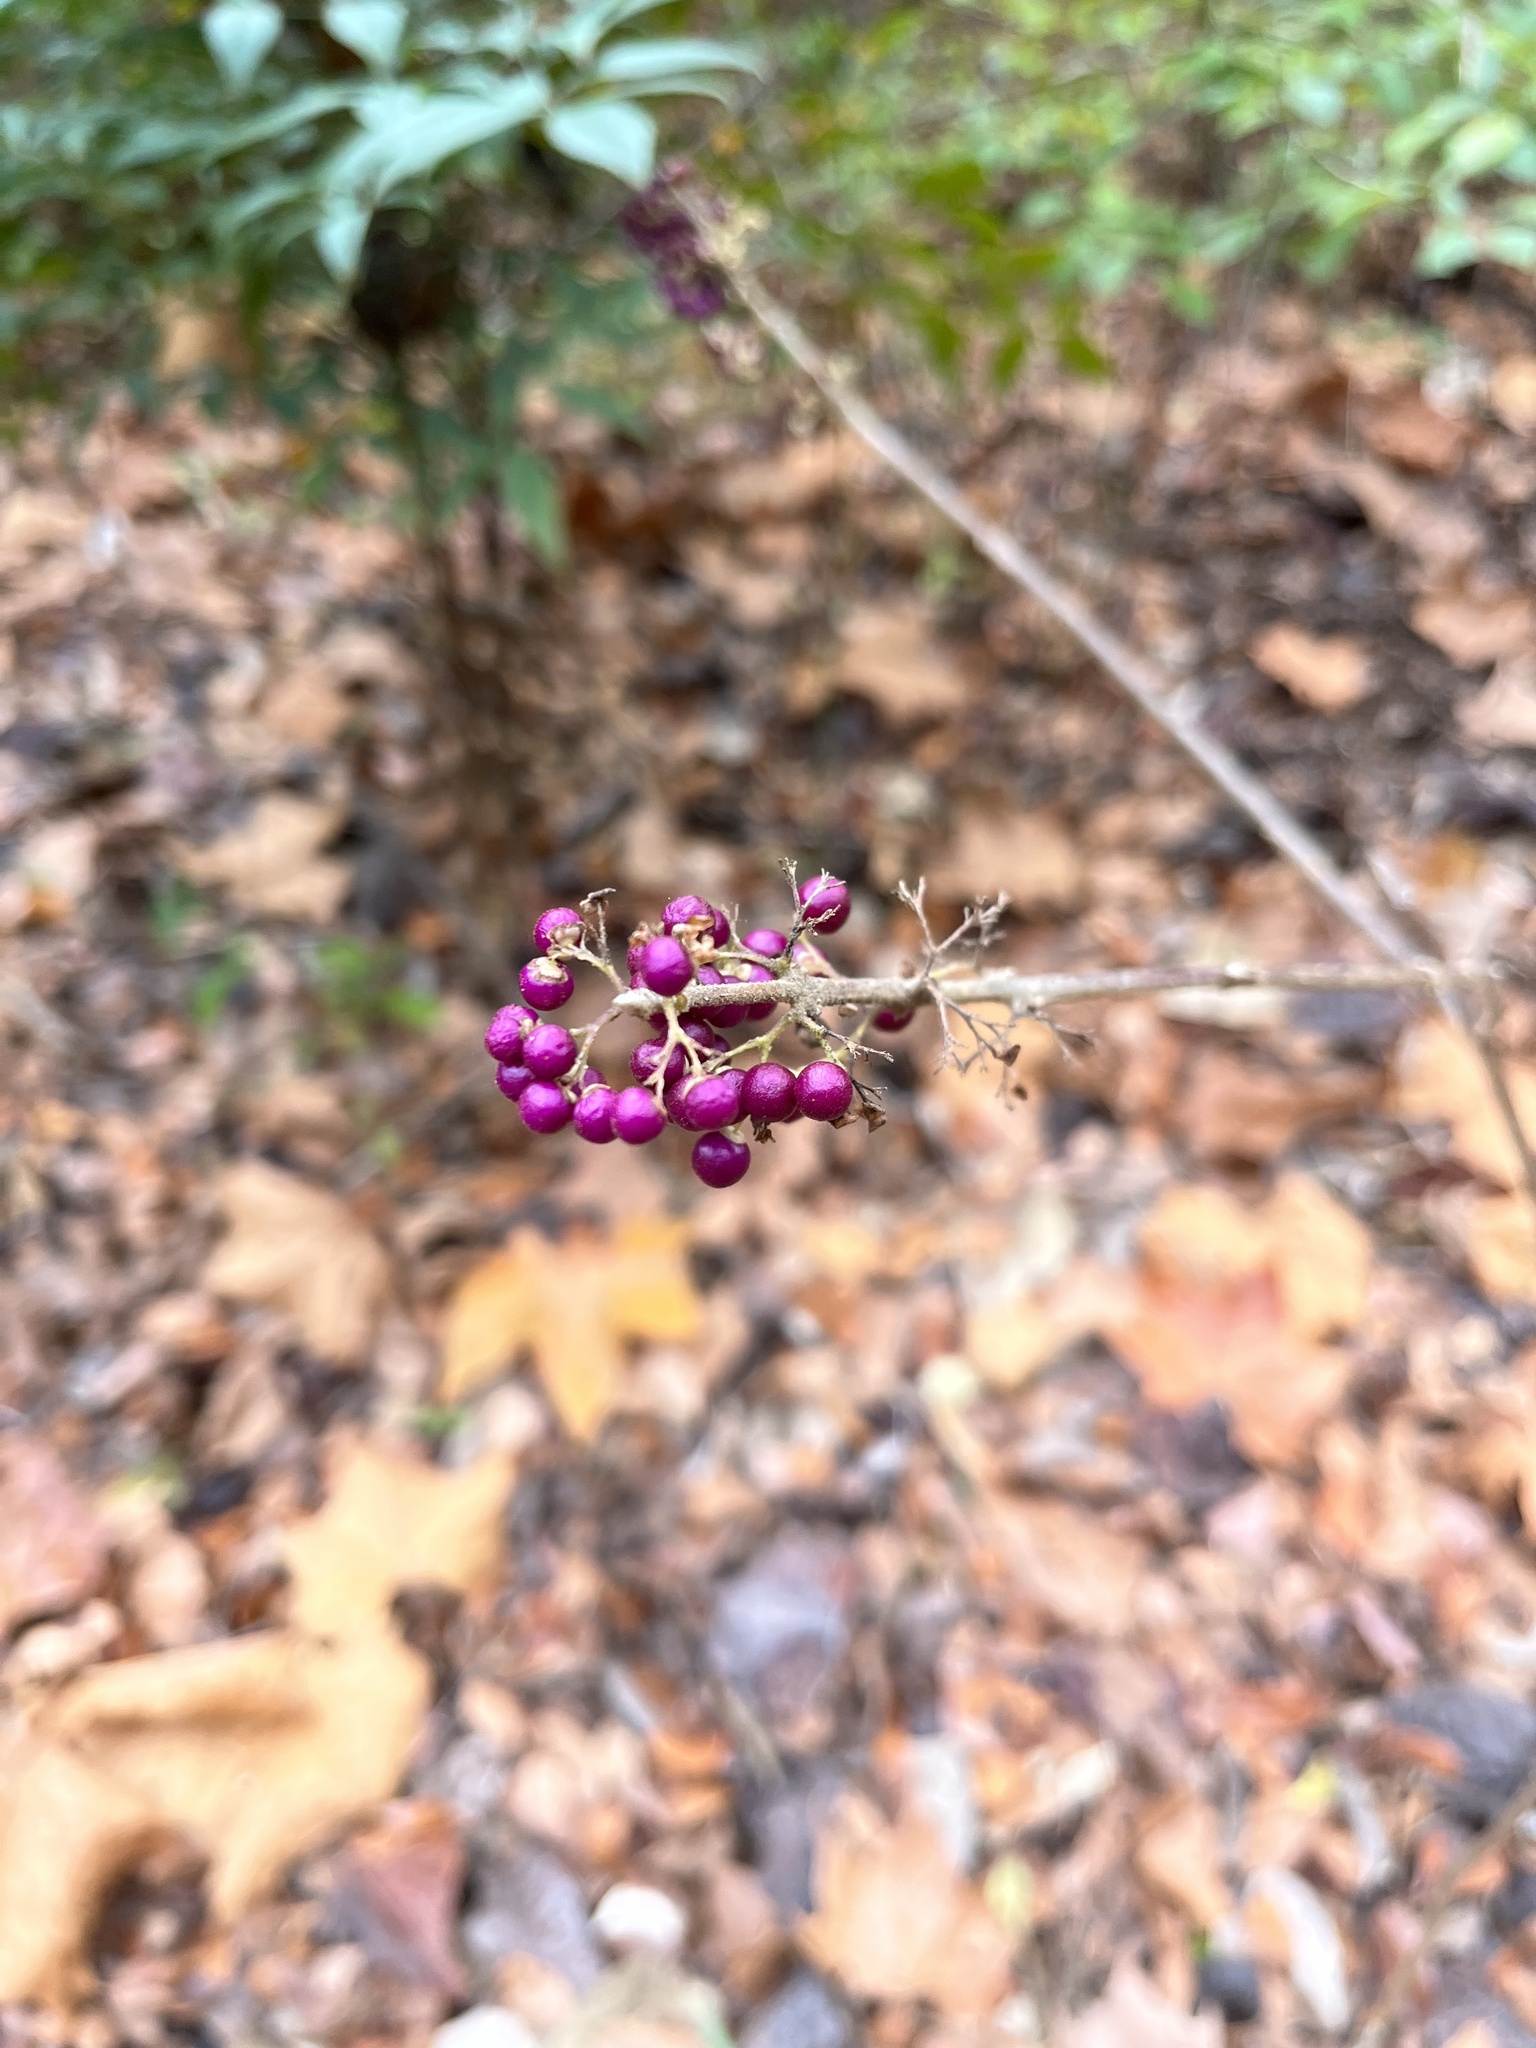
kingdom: Plantae
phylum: Tracheophyta
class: Magnoliopsida
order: Lamiales
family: Lamiaceae
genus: Callicarpa
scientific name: Callicarpa americana
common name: American beautyberry
